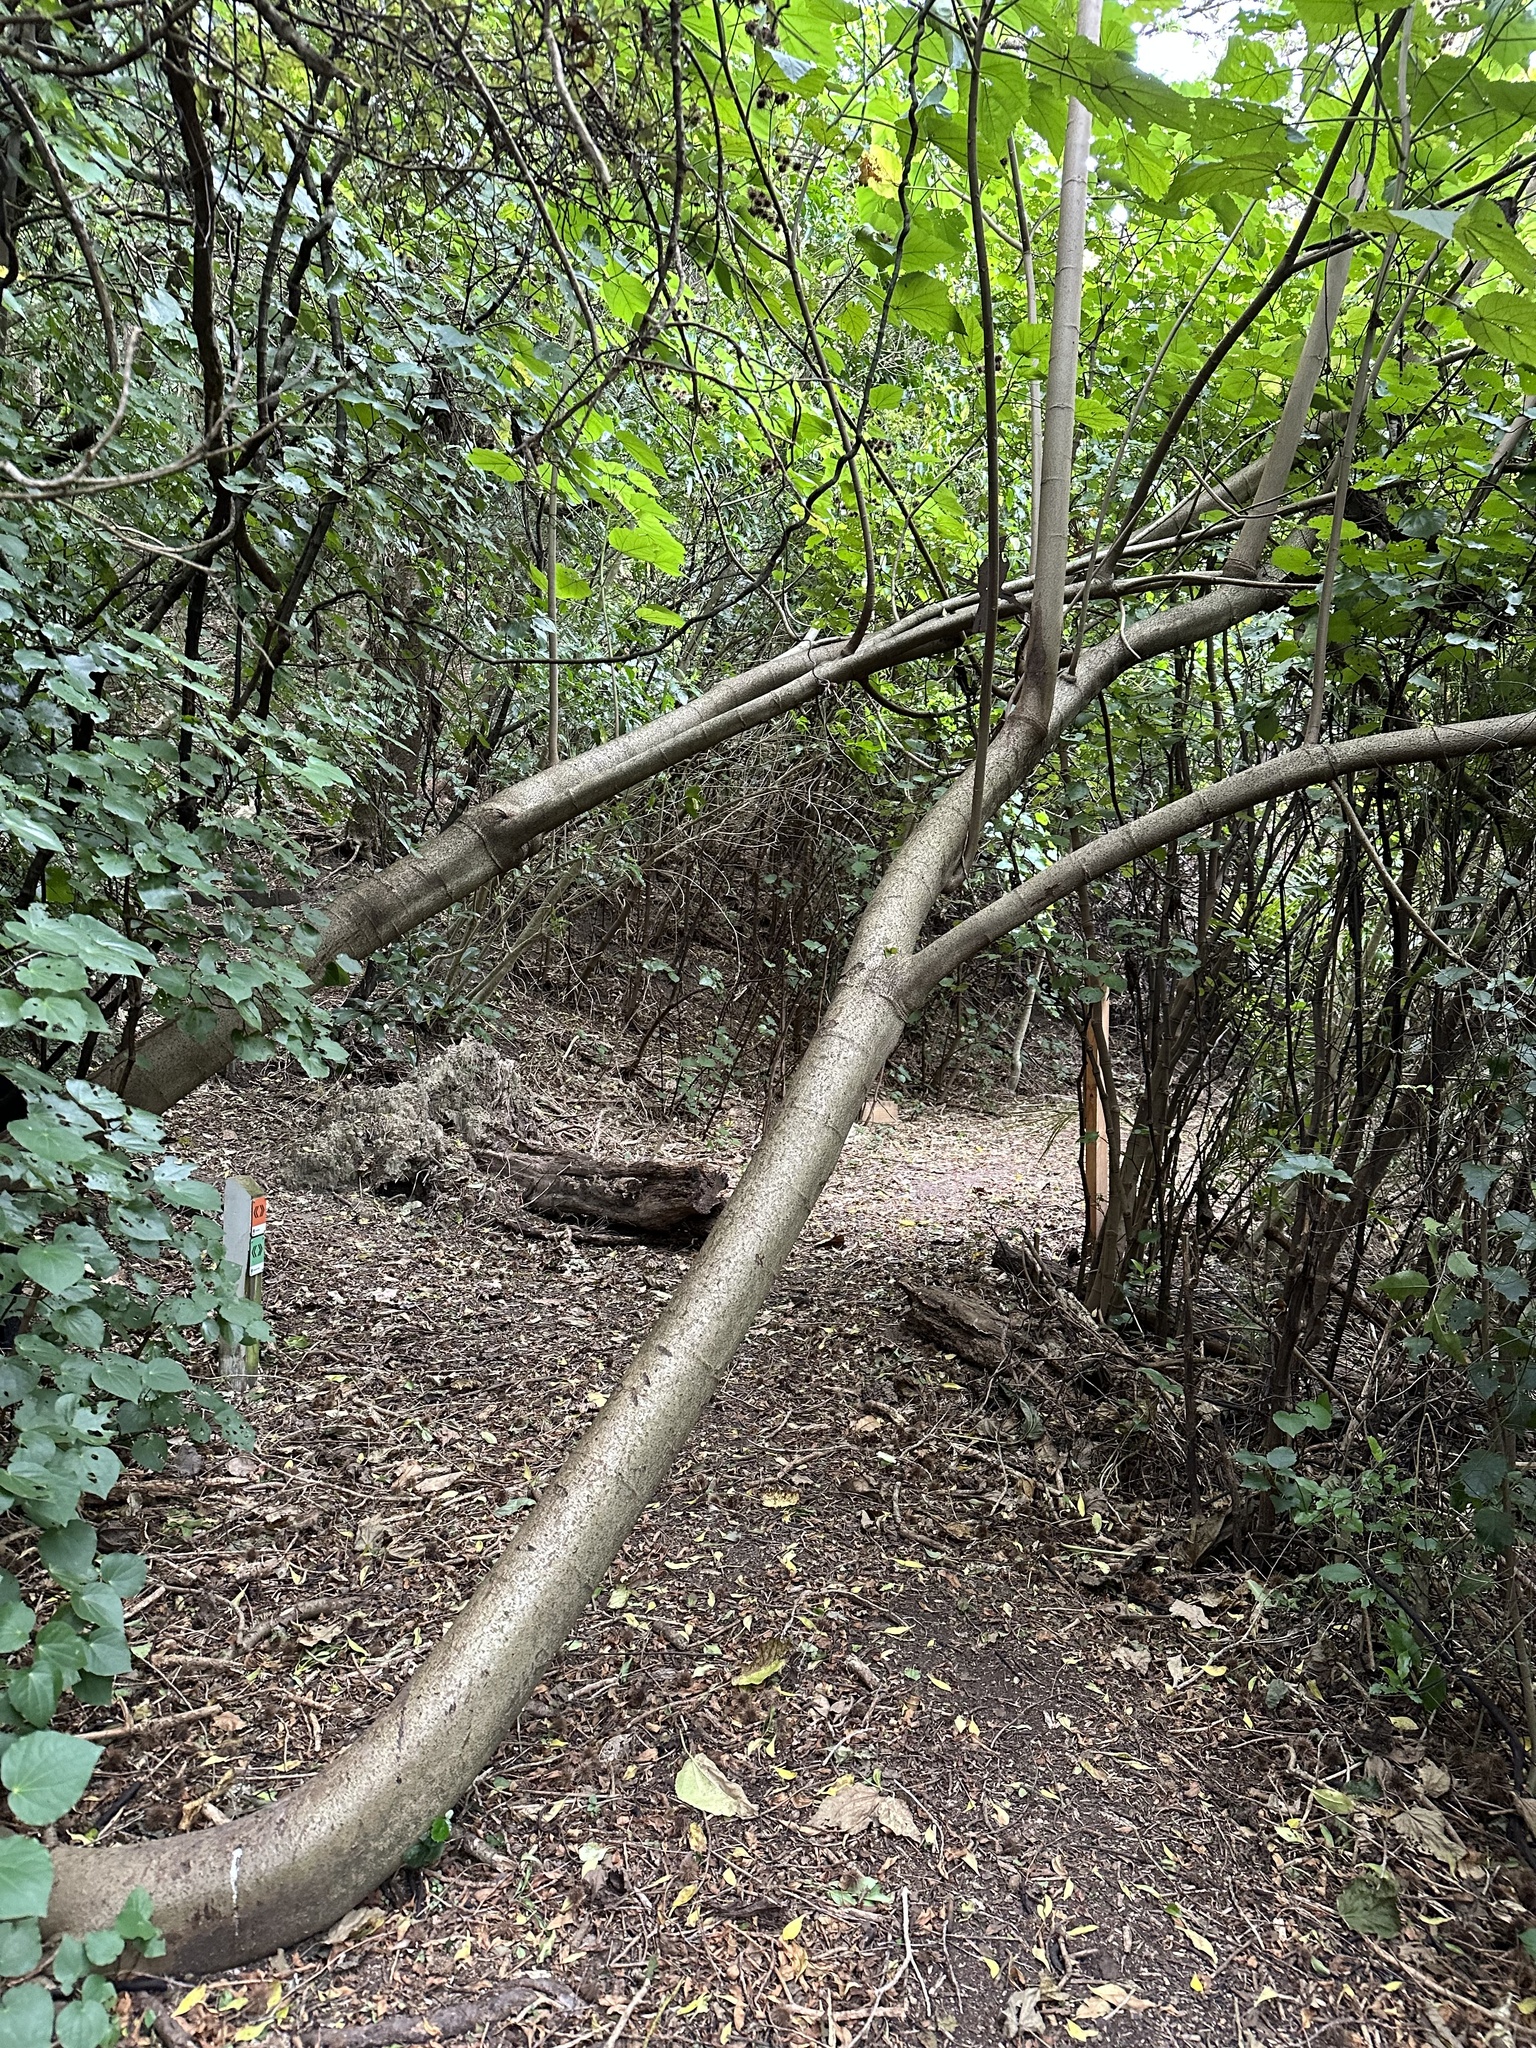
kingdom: Plantae
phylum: Tracheophyta
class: Magnoliopsida
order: Malvales
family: Malvaceae
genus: Entelea
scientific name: Entelea arborescens
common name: New zealand-mulberry
